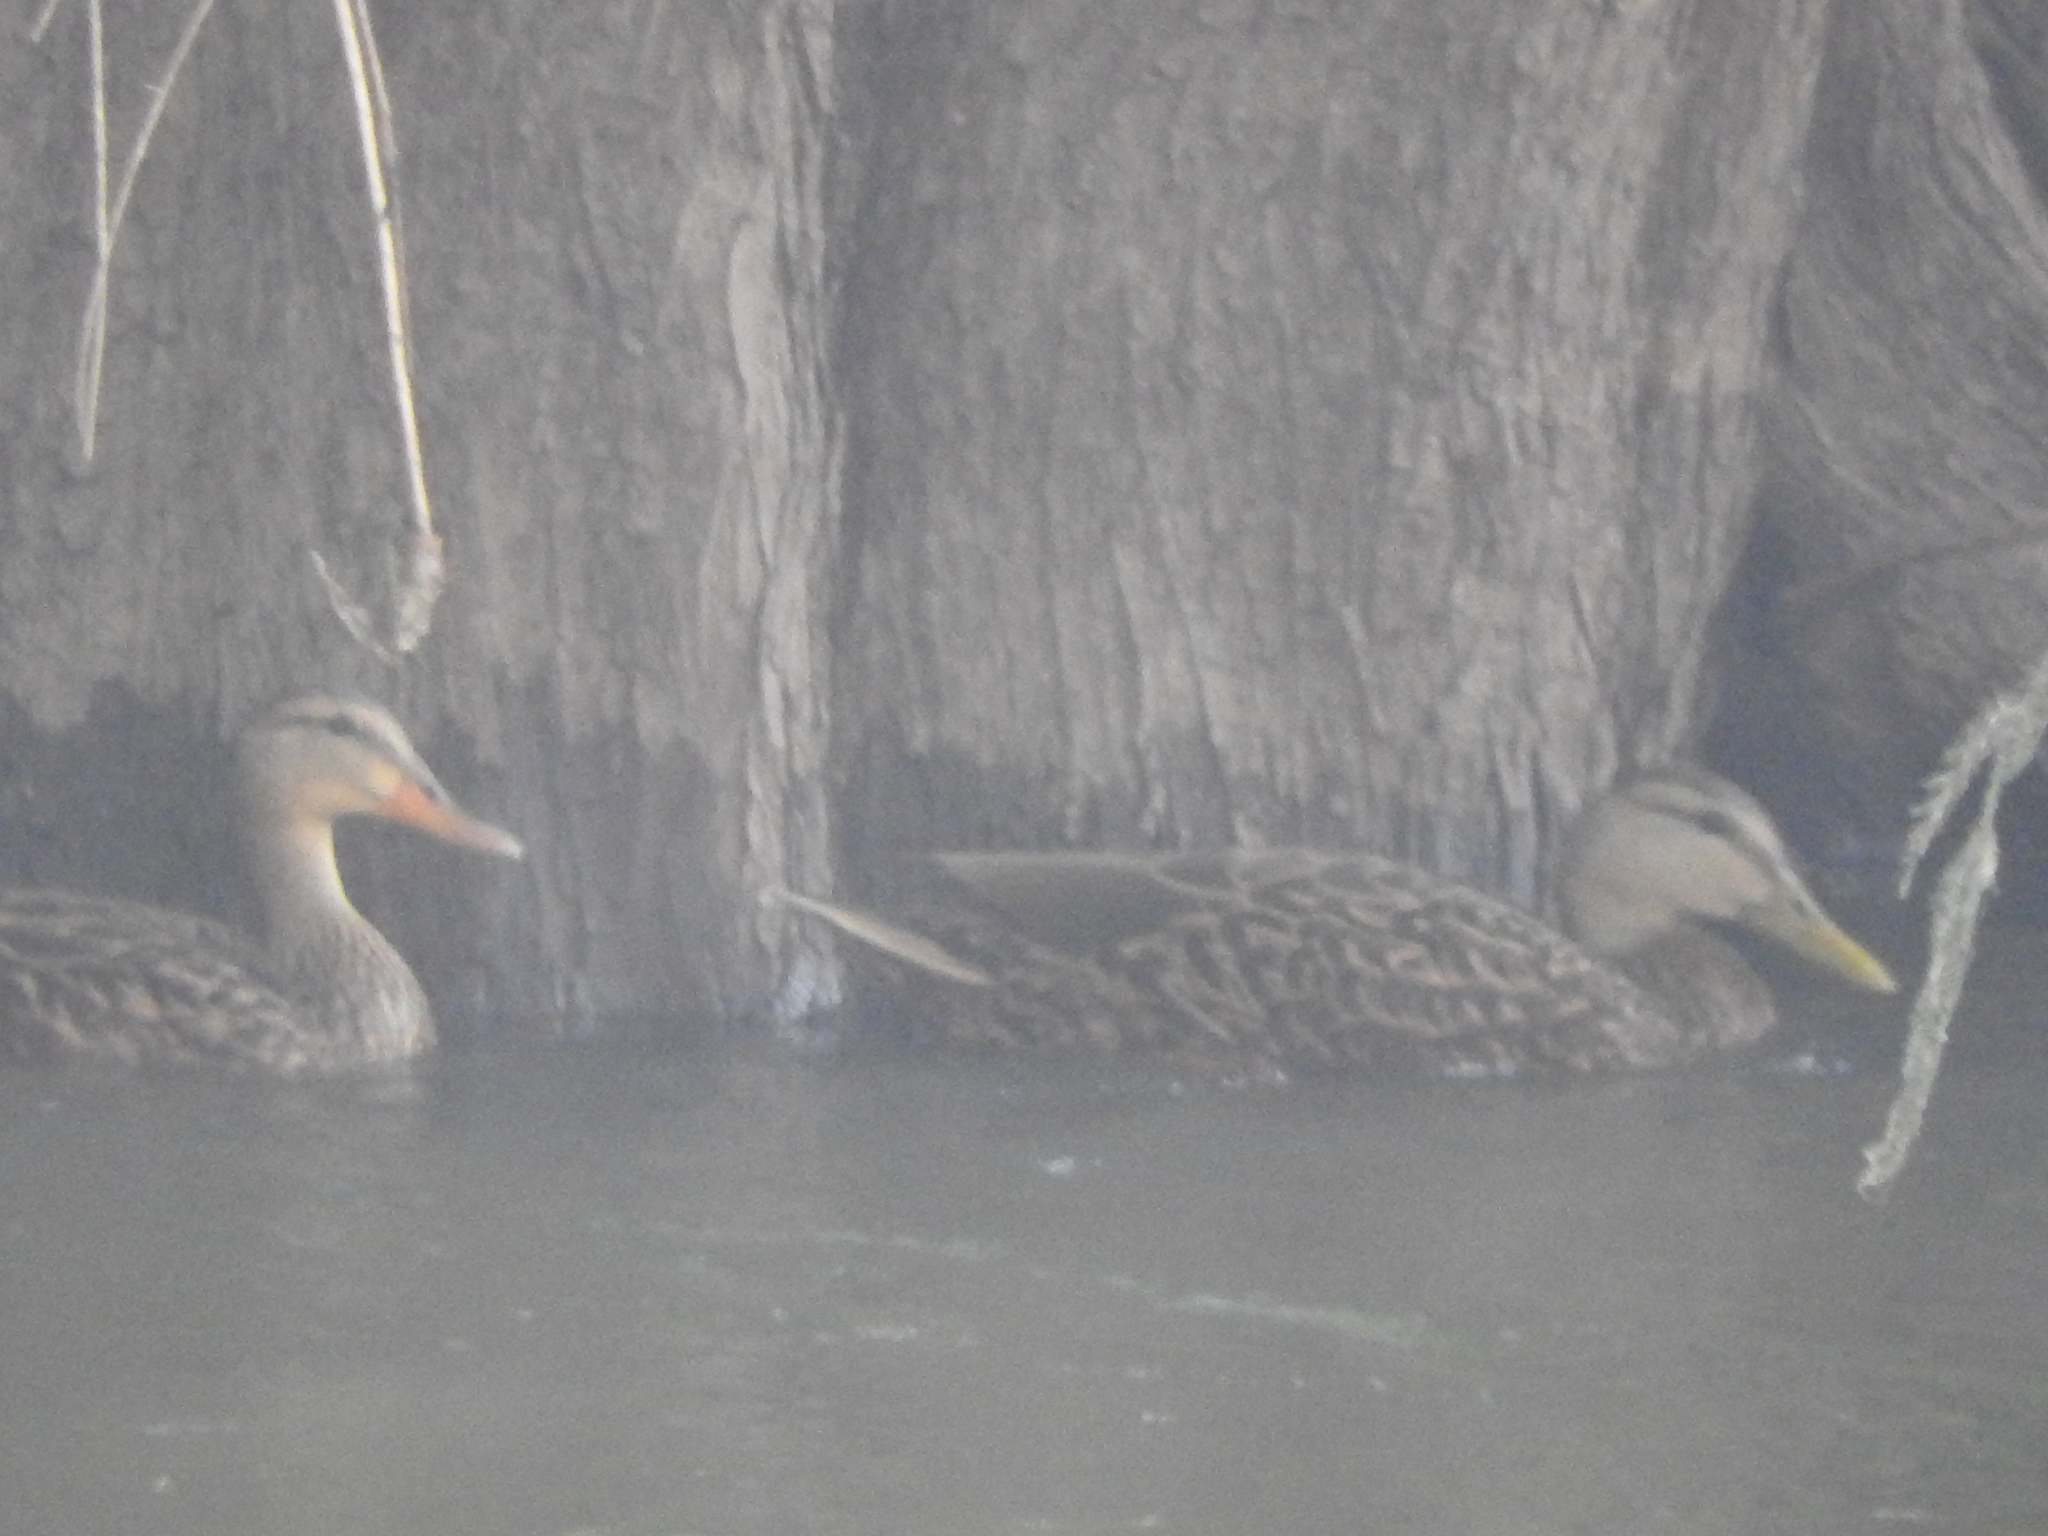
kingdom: Animalia
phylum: Chordata
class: Aves
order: Anseriformes
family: Anatidae
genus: Anas
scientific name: Anas diazi
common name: Mexican duck
